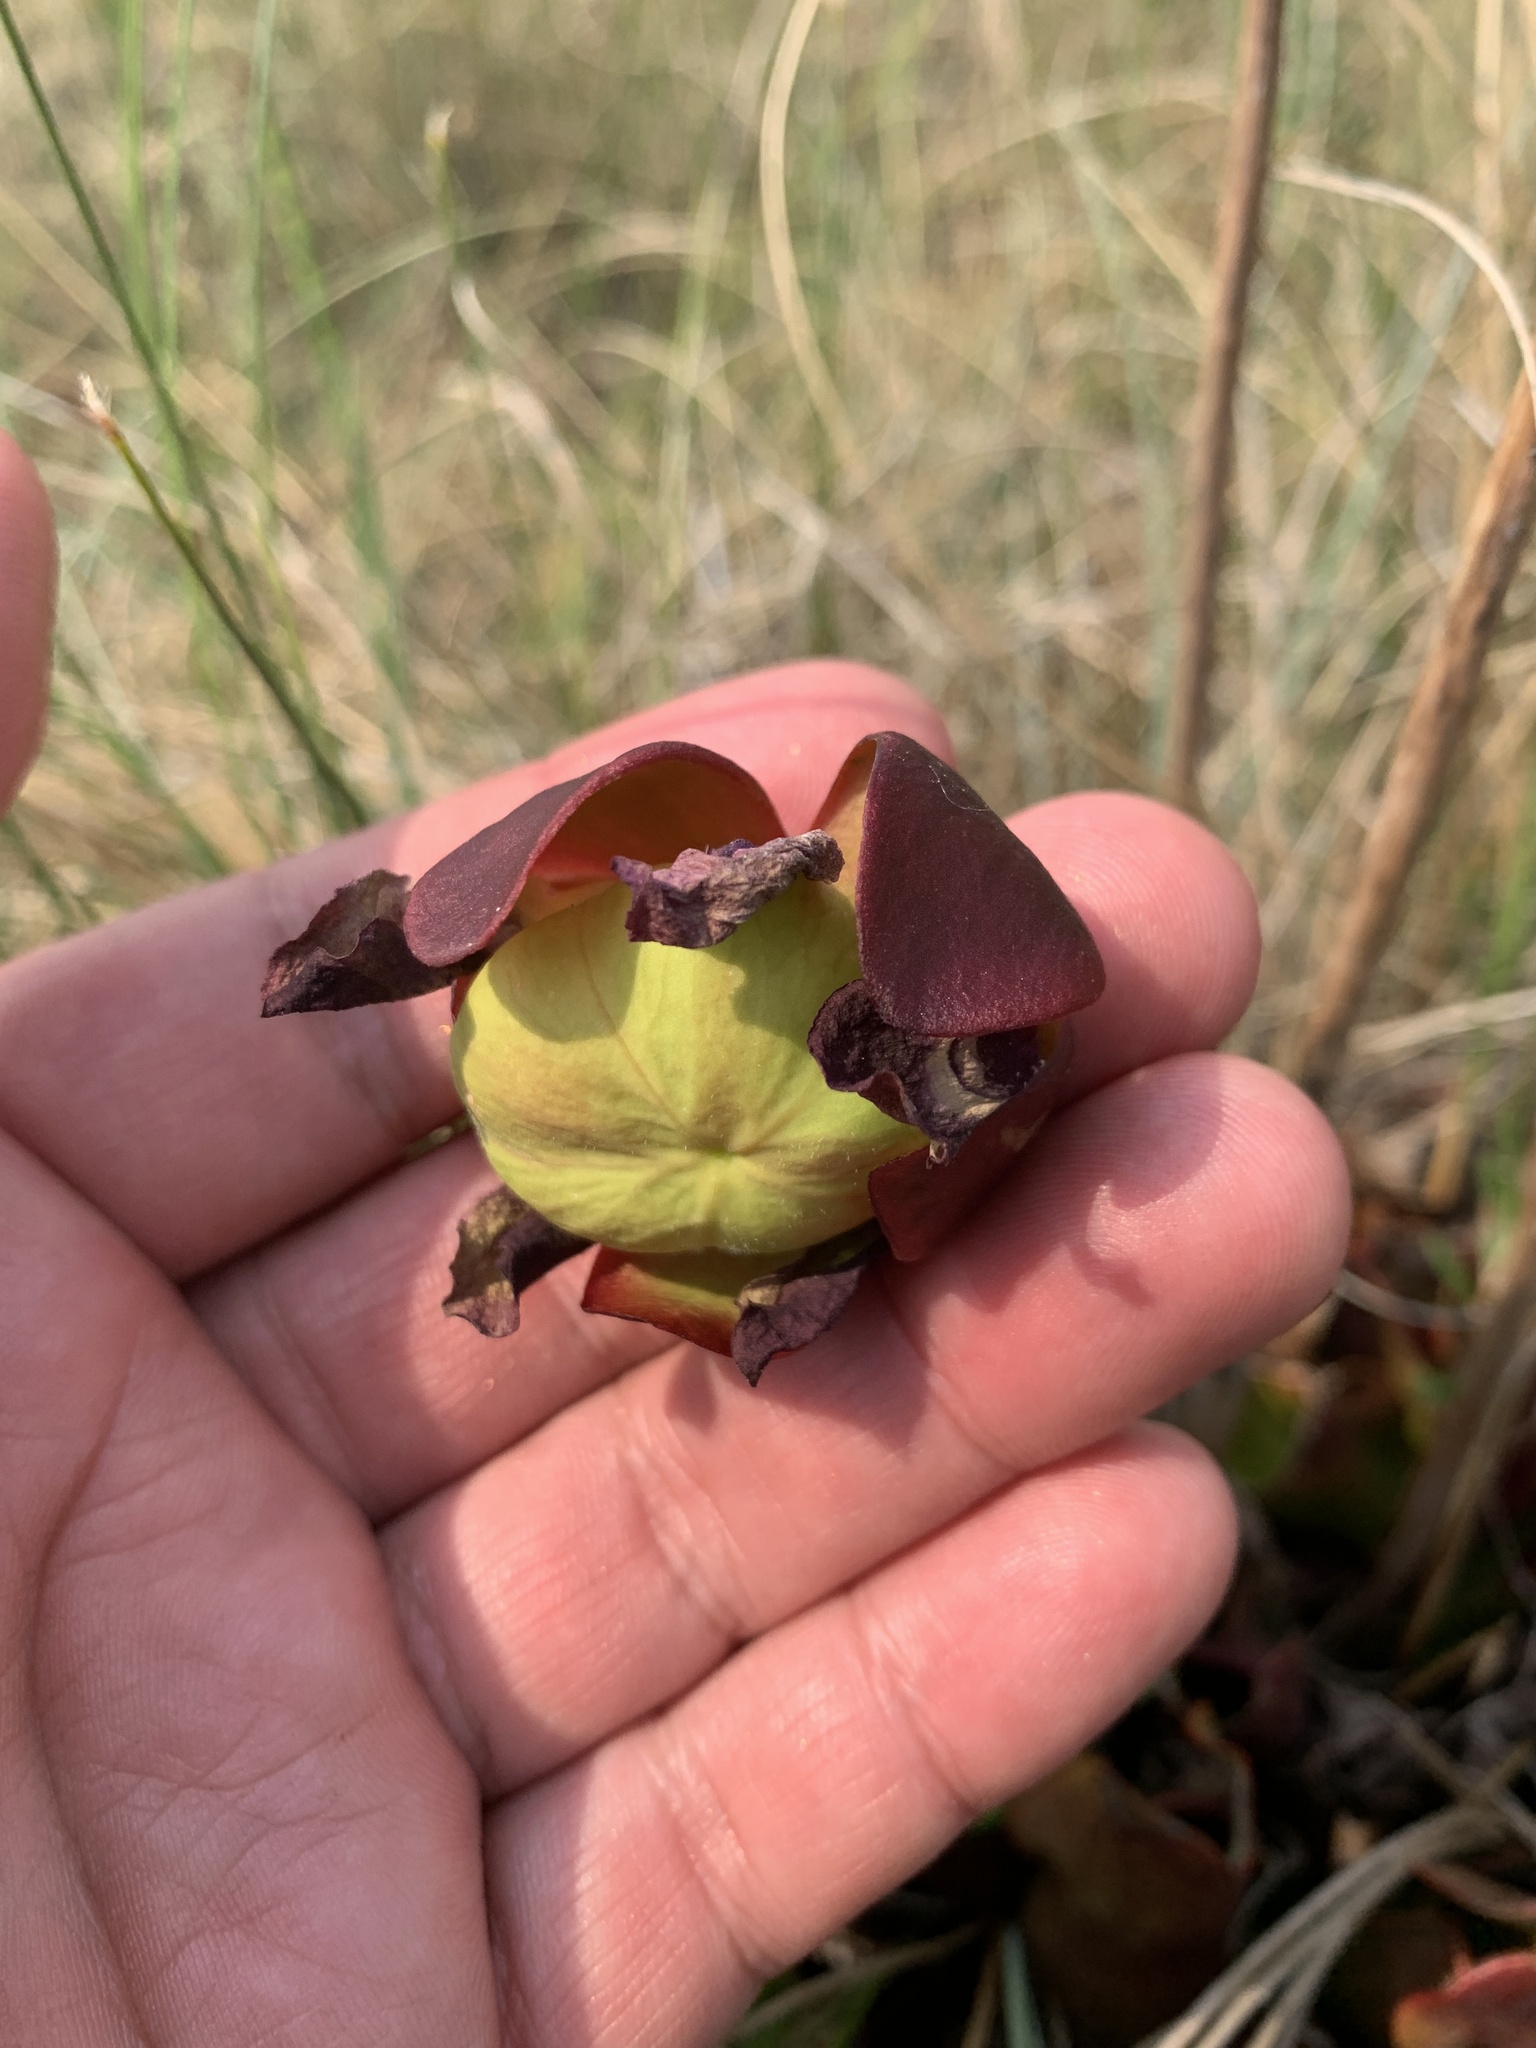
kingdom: Plantae
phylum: Tracheophyta
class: Magnoliopsida
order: Ericales
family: Sarraceniaceae
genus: Sarracenia
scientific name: Sarracenia purpurea
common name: Pitcherplant
